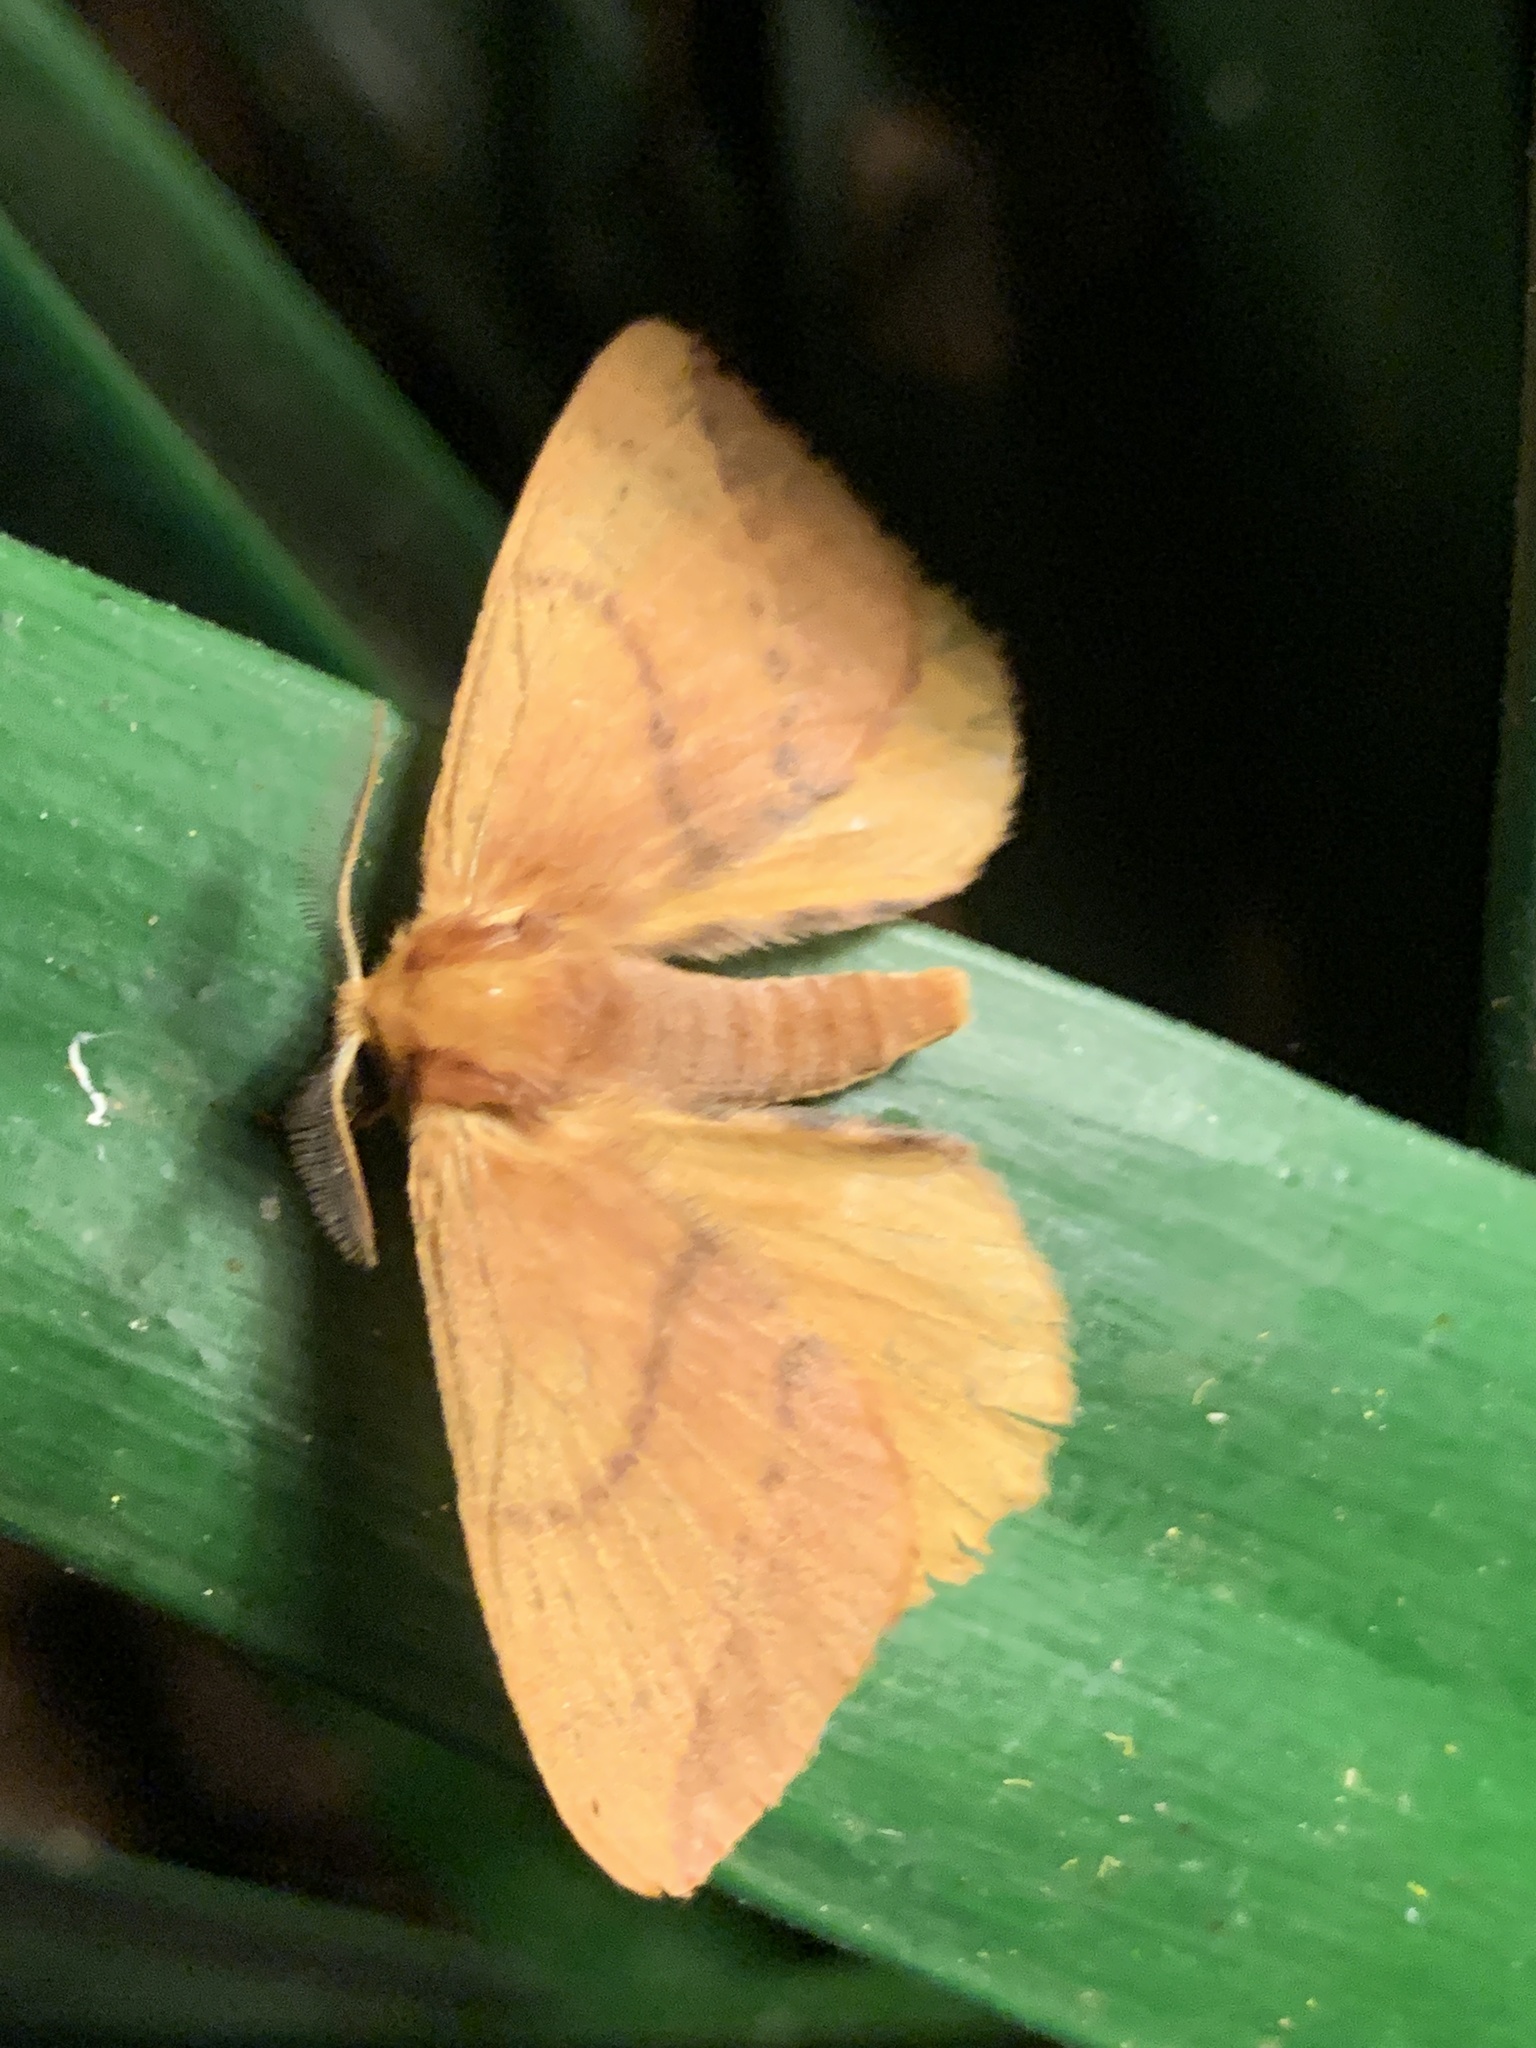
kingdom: Animalia
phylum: Arthropoda
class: Insecta
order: Lepidoptera
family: Eupterotidae
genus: Stenoglene
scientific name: Stenoglene obtusus
